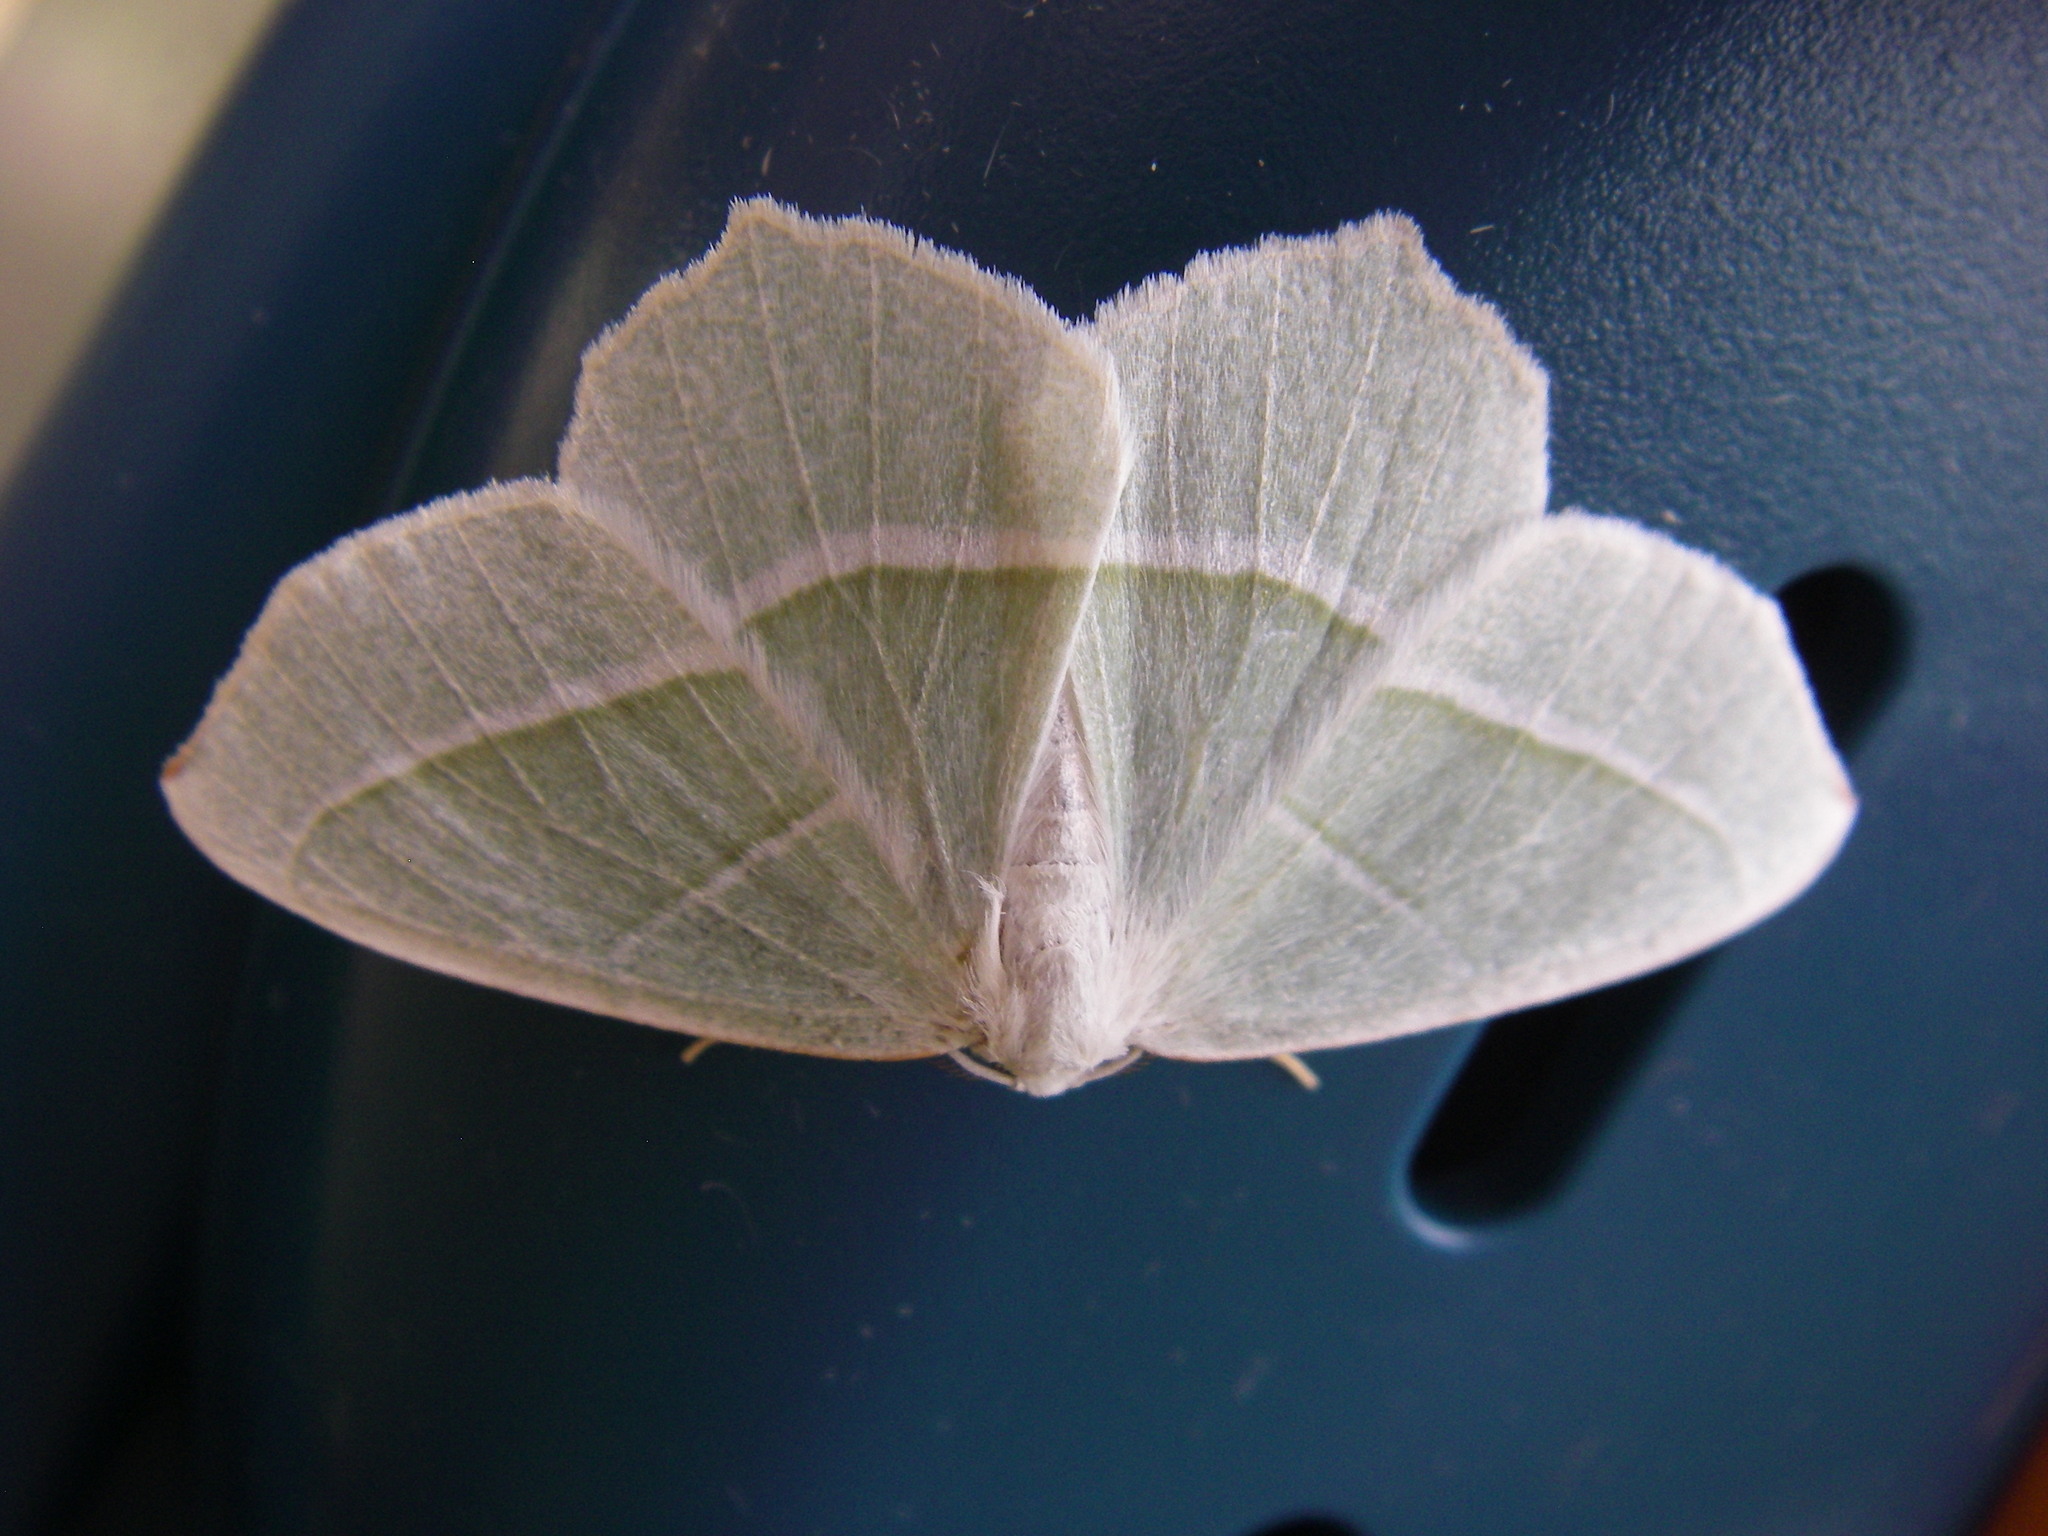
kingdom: Animalia
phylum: Arthropoda
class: Insecta
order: Lepidoptera
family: Geometridae
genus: Campaea
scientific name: Campaea margaritaria
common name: Light emerald
